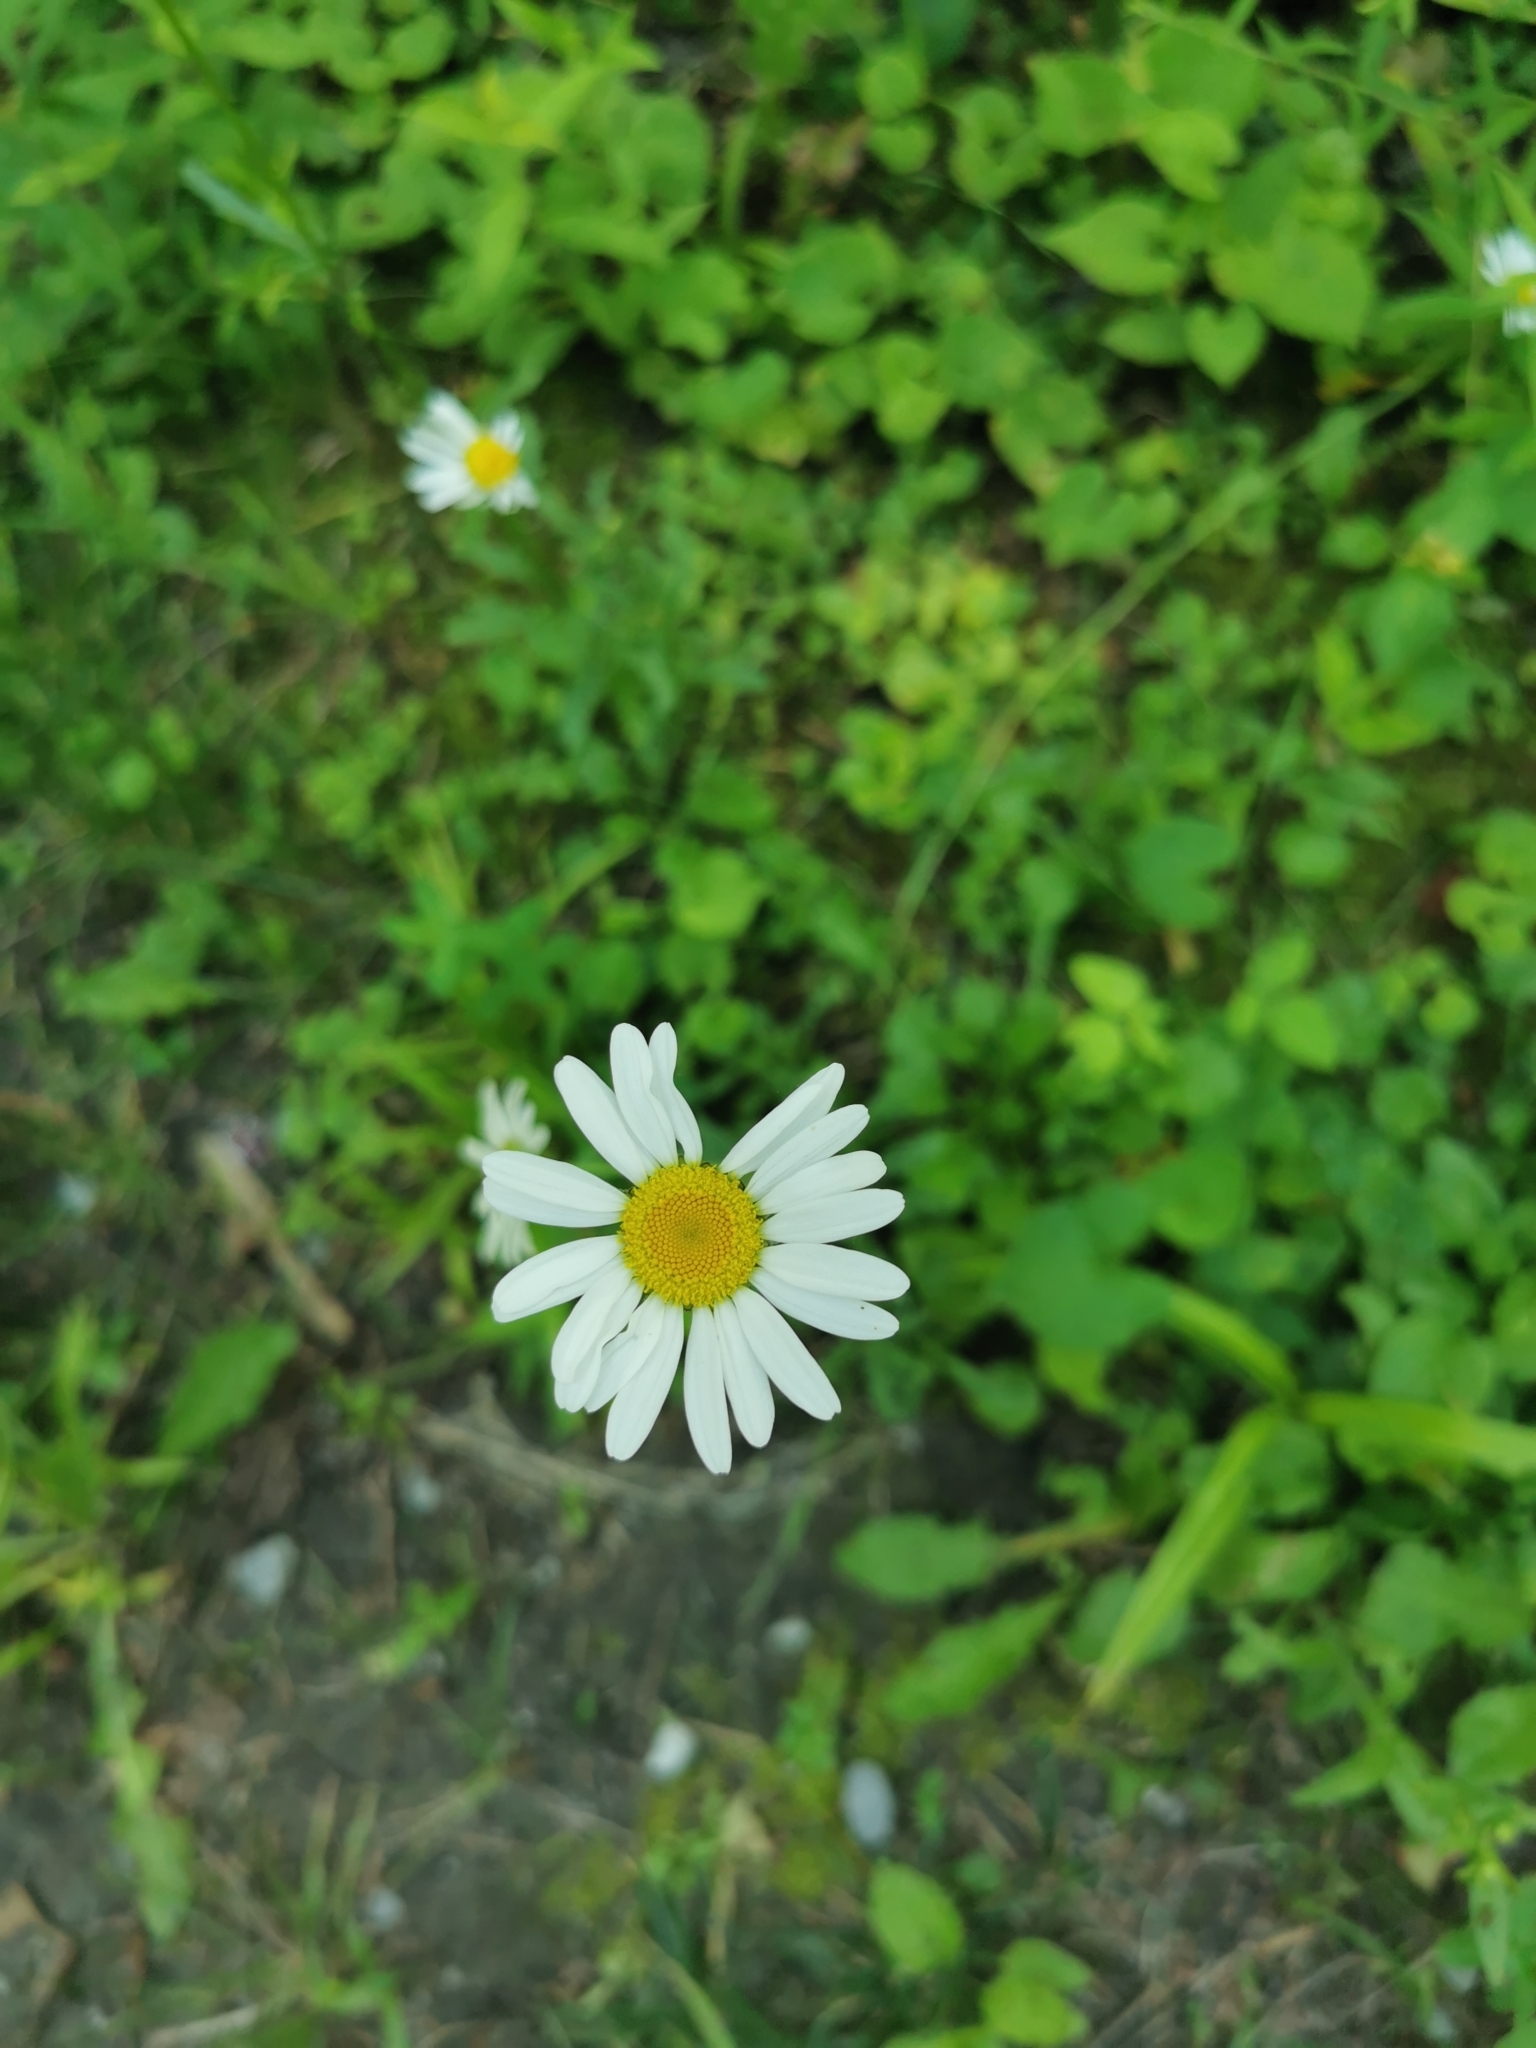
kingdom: Plantae
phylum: Tracheophyta
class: Magnoliopsida
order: Asterales
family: Asteraceae
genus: Leucanthemum
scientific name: Leucanthemum vulgare
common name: Oxeye daisy
